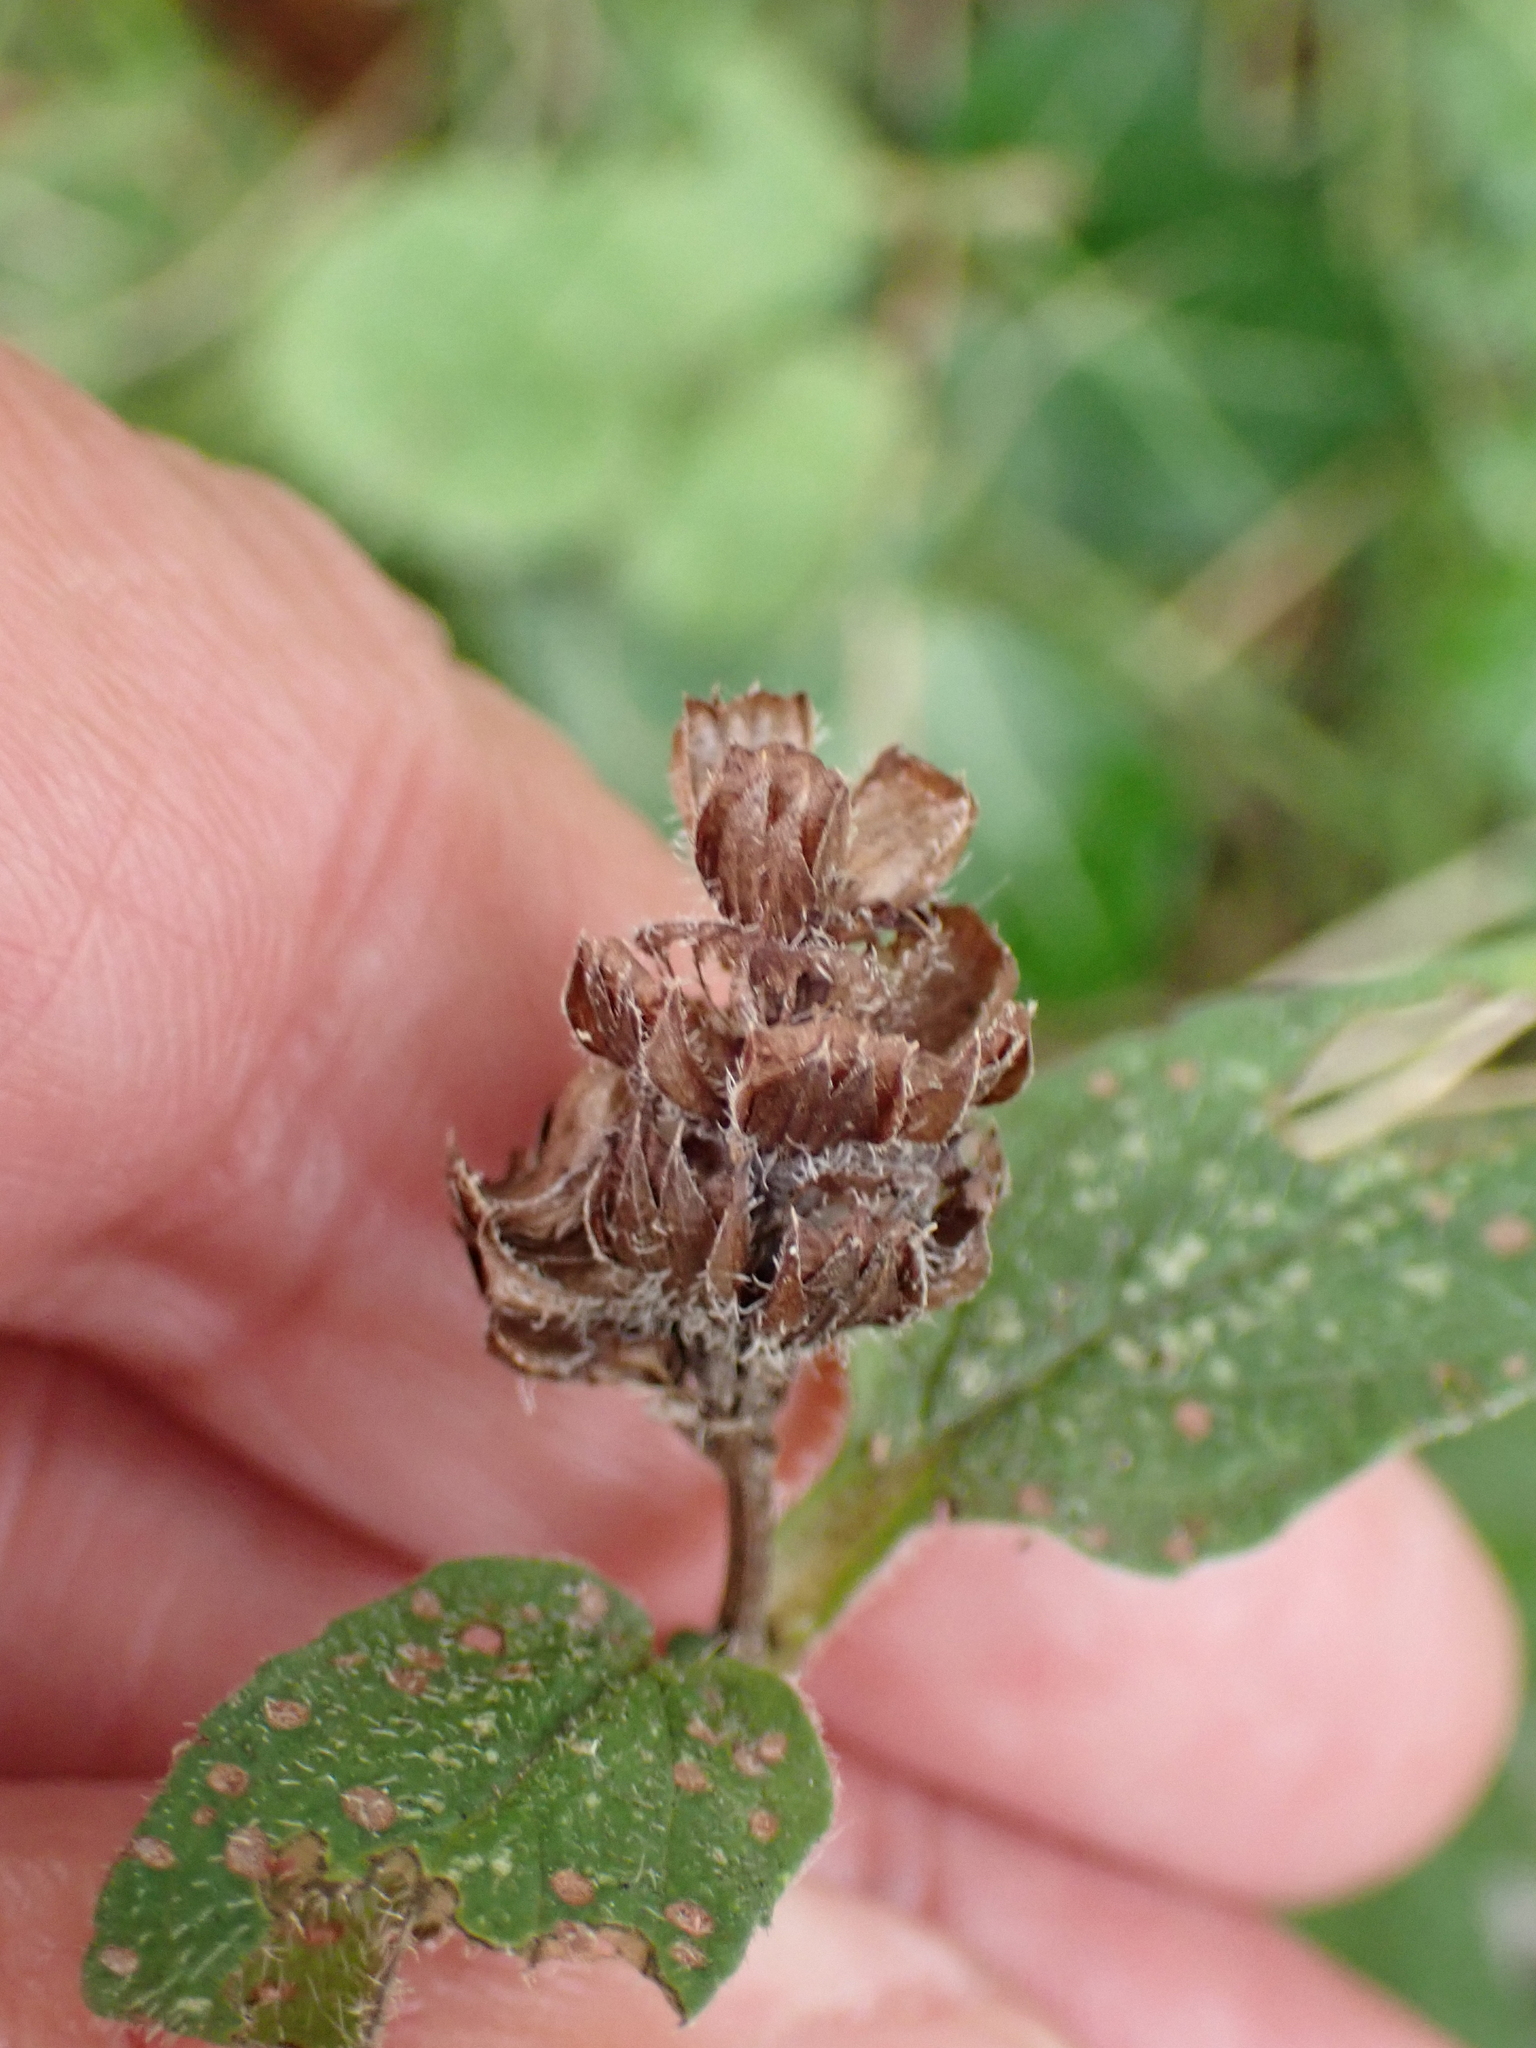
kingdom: Plantae
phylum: Tracheophyta
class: Magnoliopsida
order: Lamiales
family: Lamiaceae
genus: Prunella
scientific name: Prunella vulgaris
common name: Heal-all
